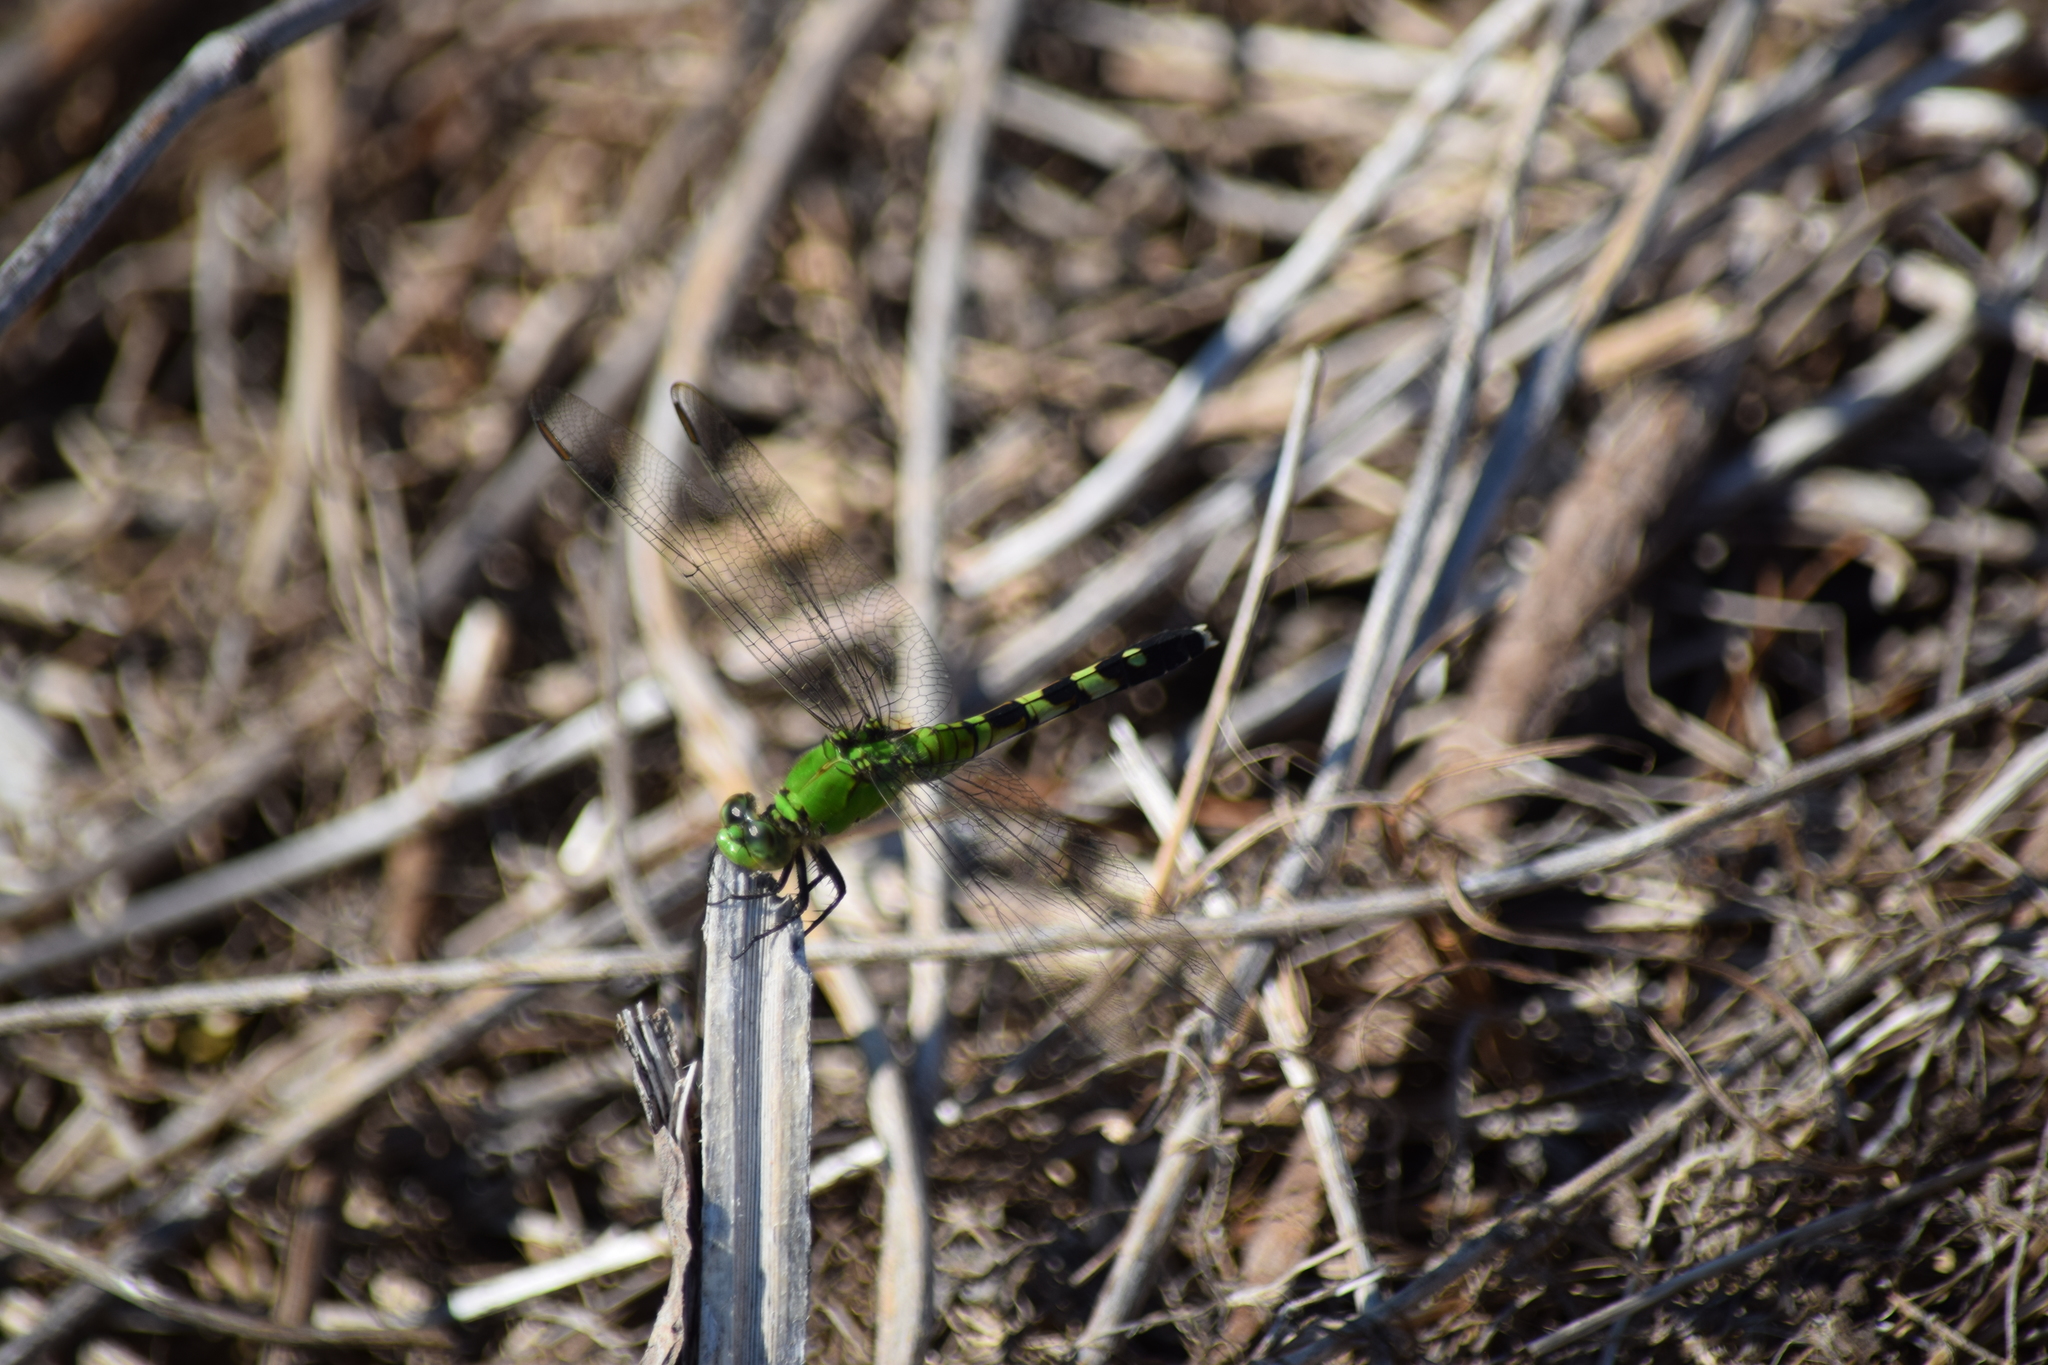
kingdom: Animalia
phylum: Arthropoda
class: Insecta
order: Odonata
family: Libellulidae
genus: Erythemis
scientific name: Erythemis simplicicollis
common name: Eastern pondhawk
